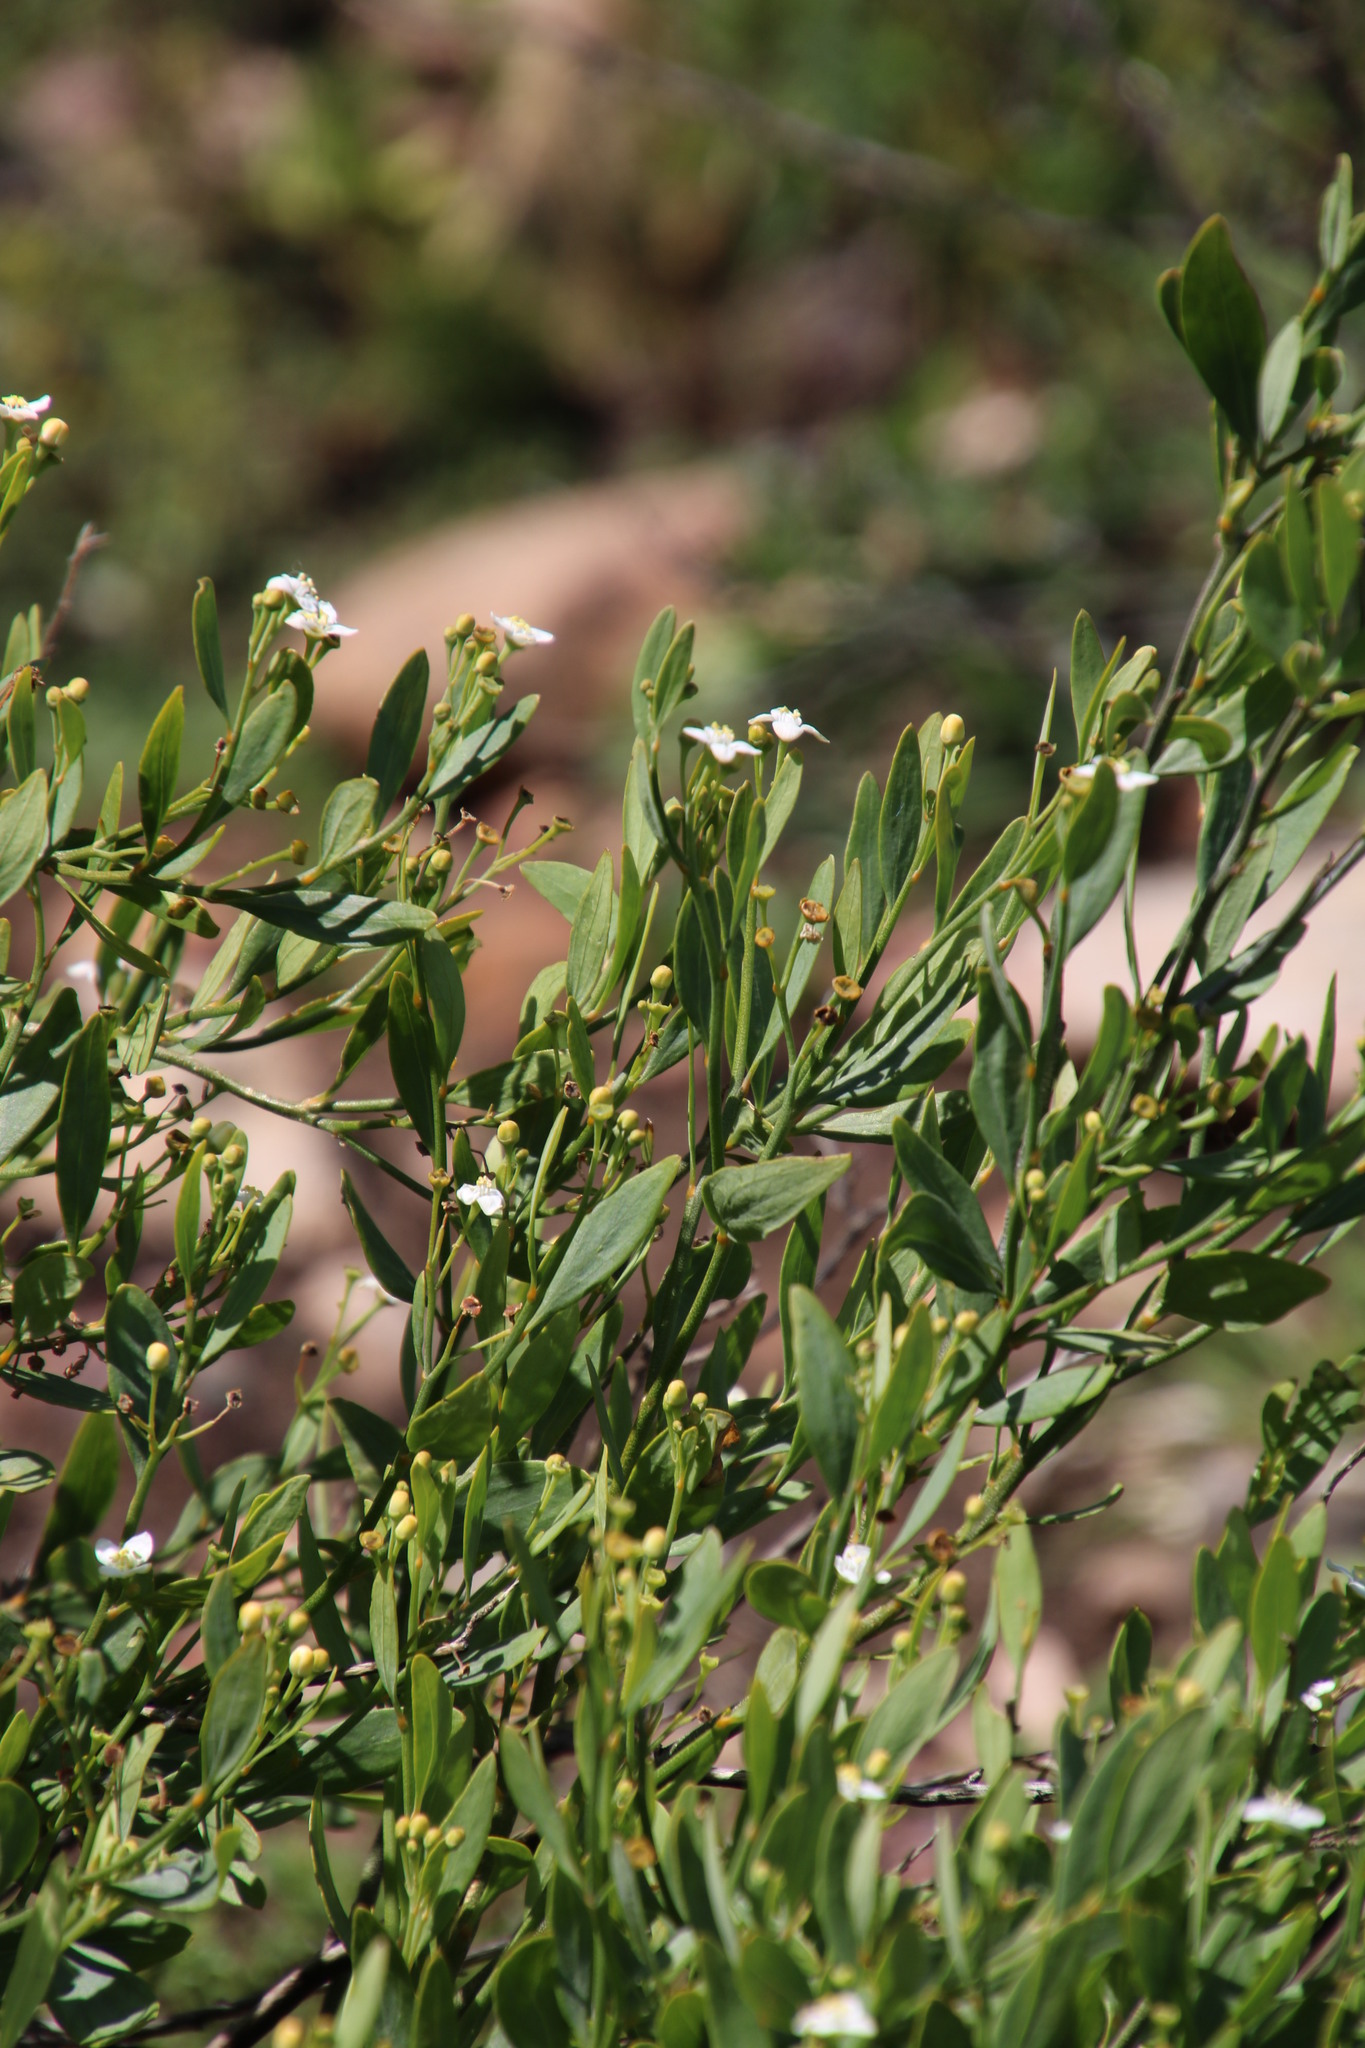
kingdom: Plantae
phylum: Tracheophyta
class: Magnoliopsida
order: Solanales
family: Montiniaceae
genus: Montinia
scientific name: Montinia caryophyllacea
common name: Wild clove-bush
